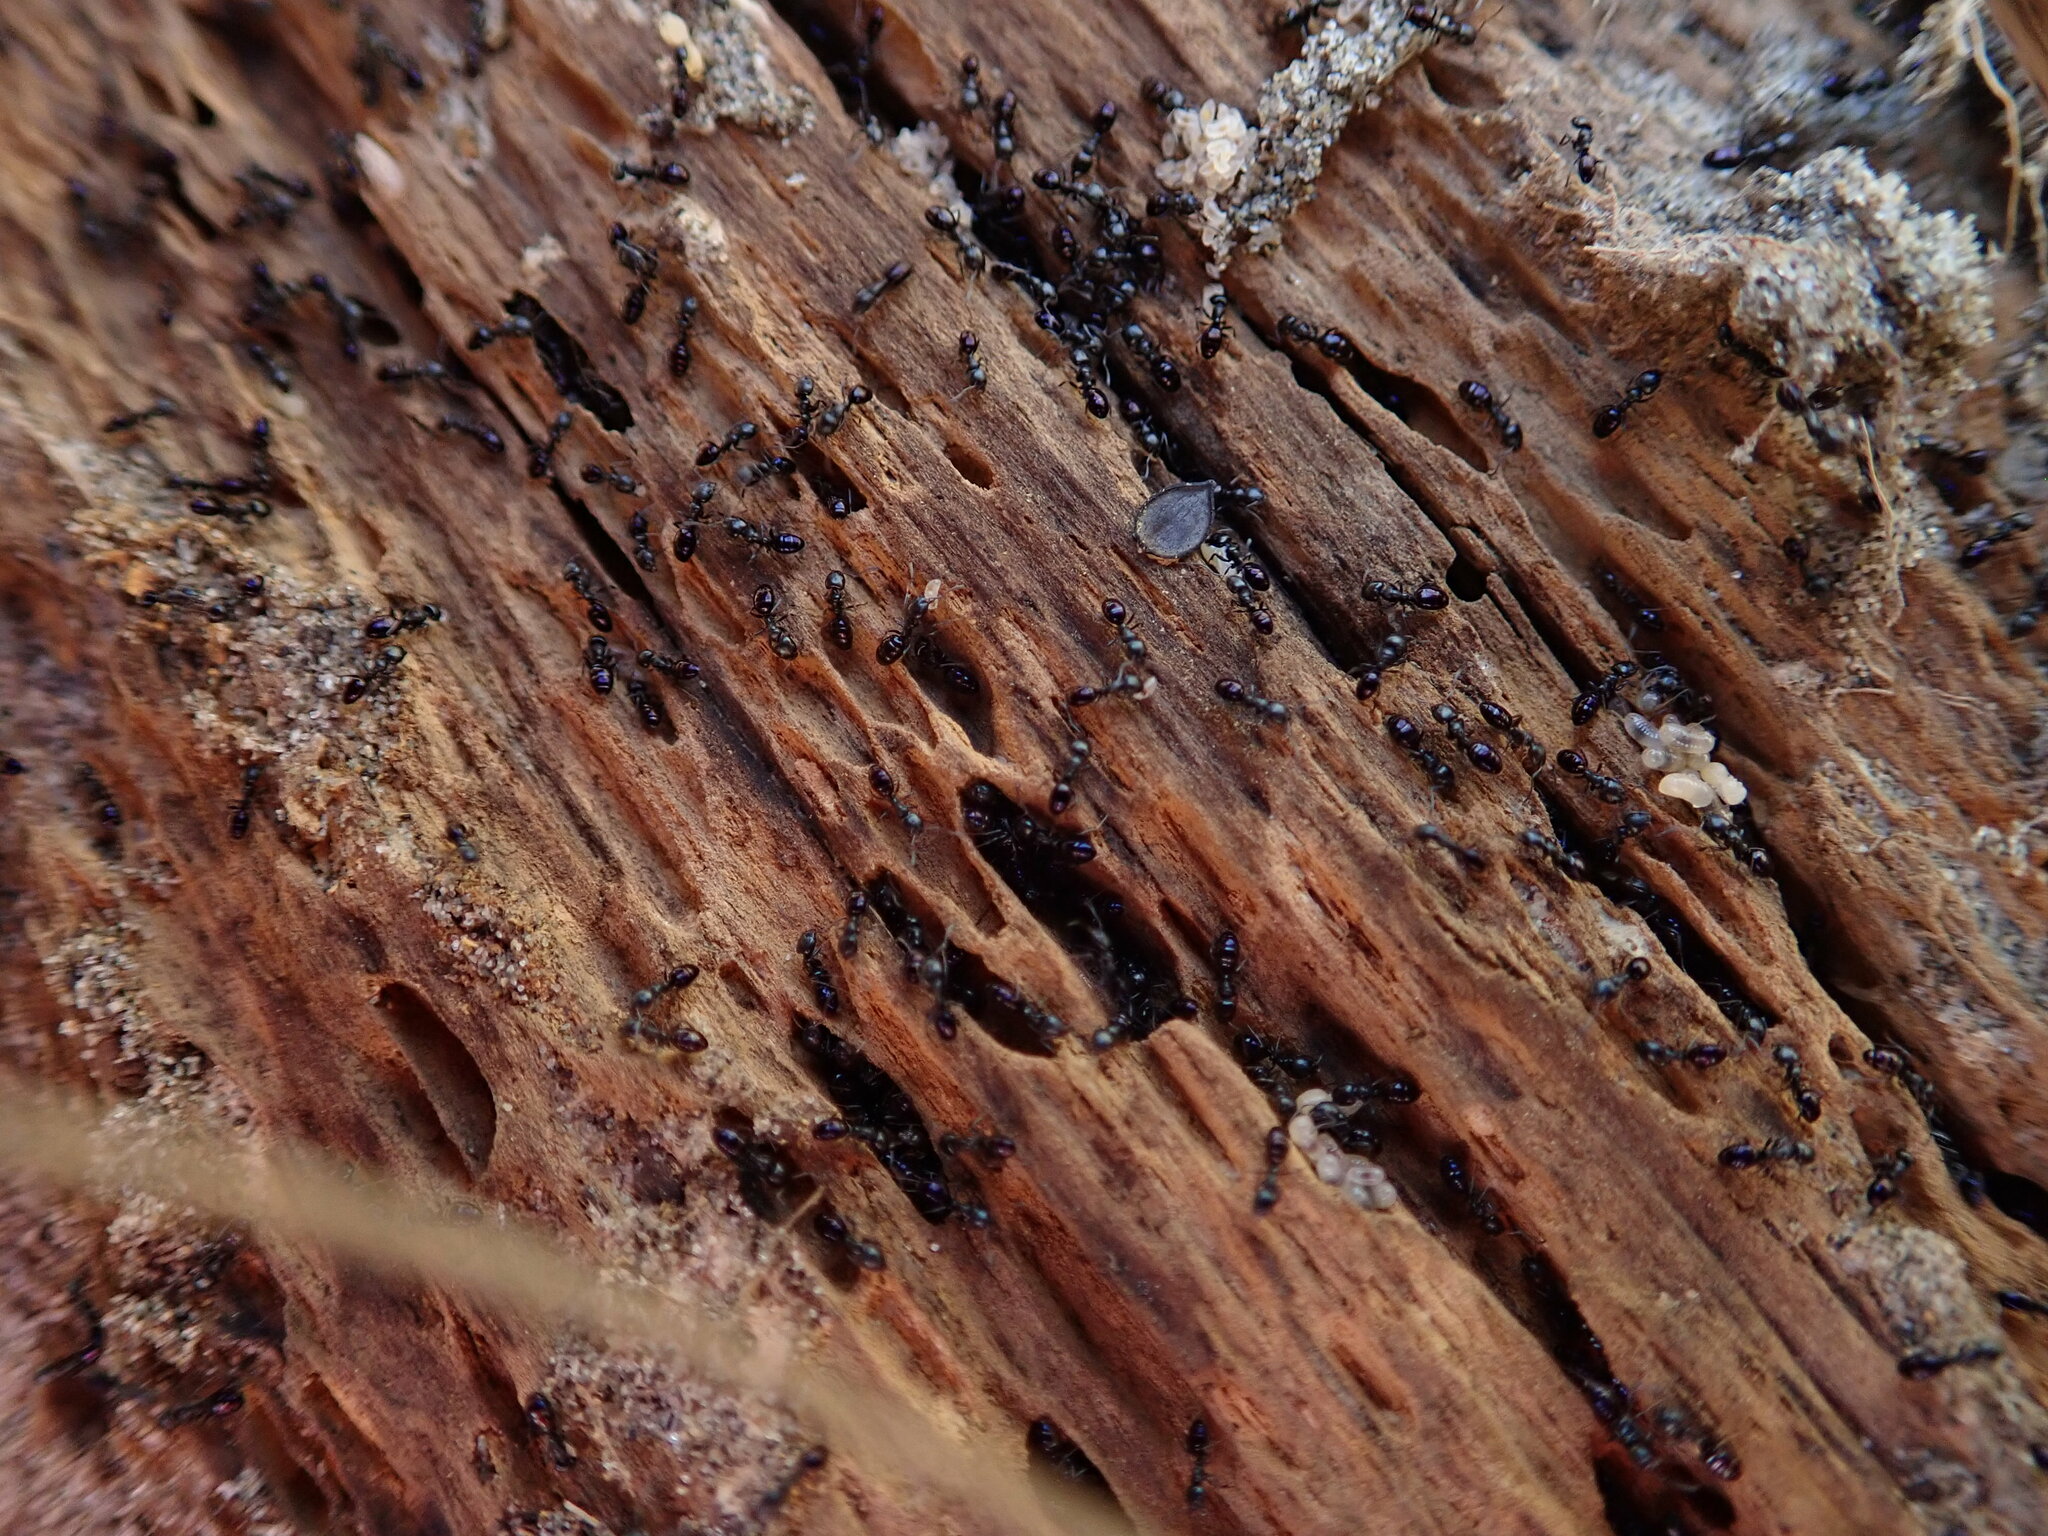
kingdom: Animalia
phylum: Arthropoda
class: Insecta
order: Hymenoptera
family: Formicidae
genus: Ochetellus
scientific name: Ochetellus glaber
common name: Ant
